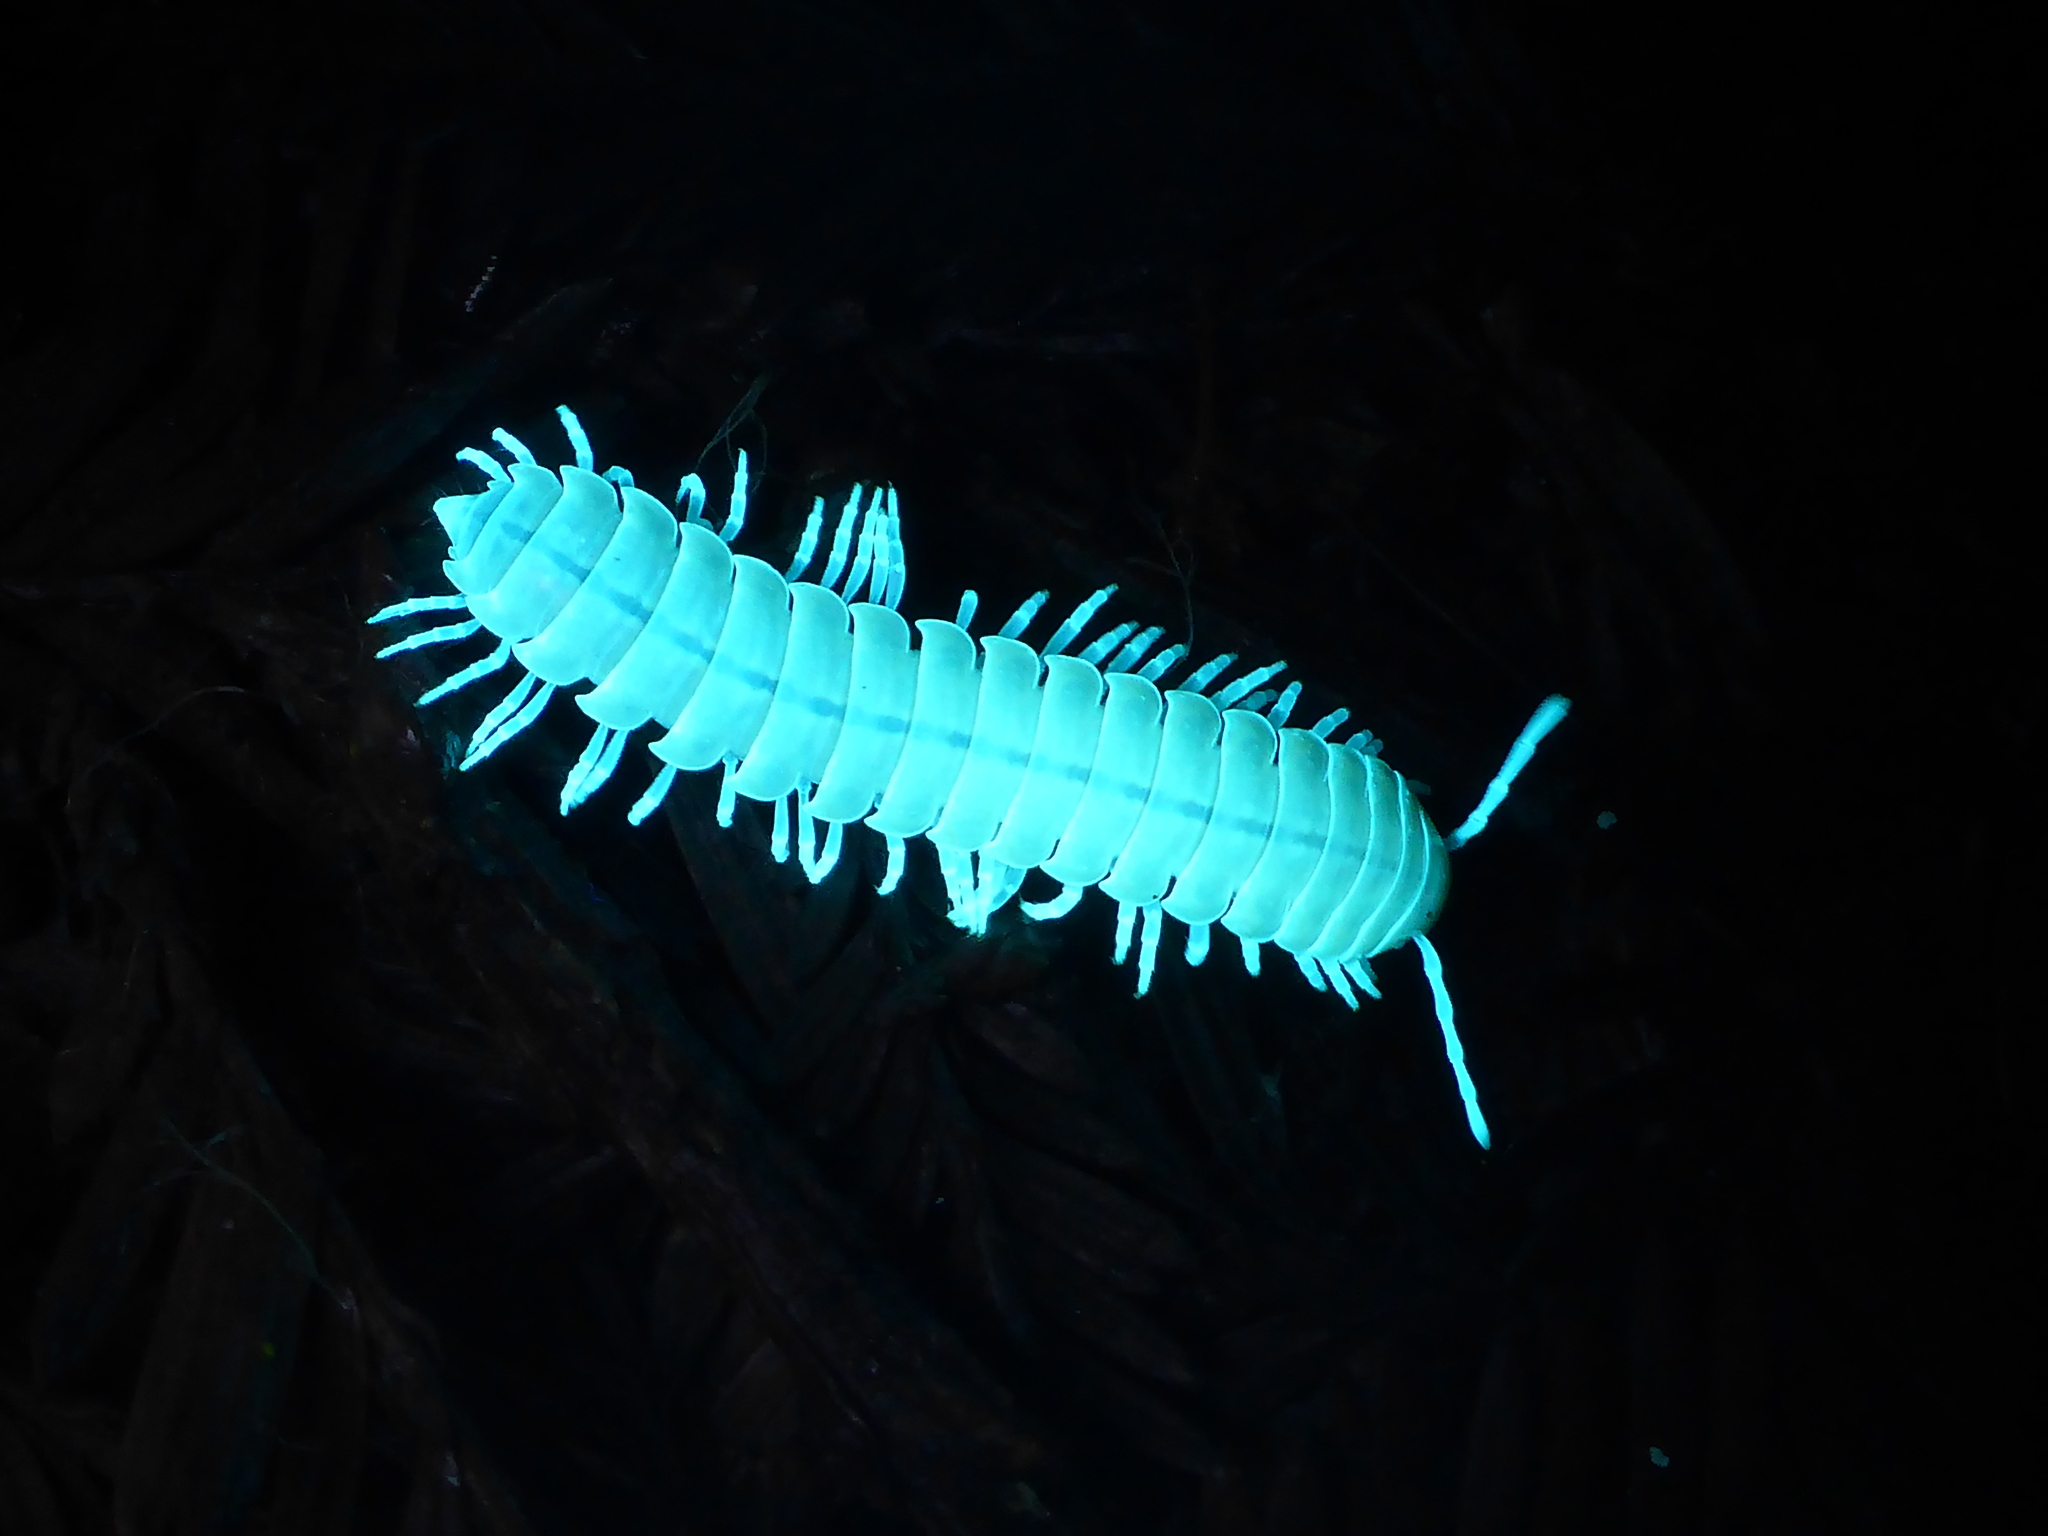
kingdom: Animalia
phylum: Arthropoda
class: Diplopoda
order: Polydesmida
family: Xystodesmidae
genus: Xystocheir
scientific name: Xystocheir dissecta
